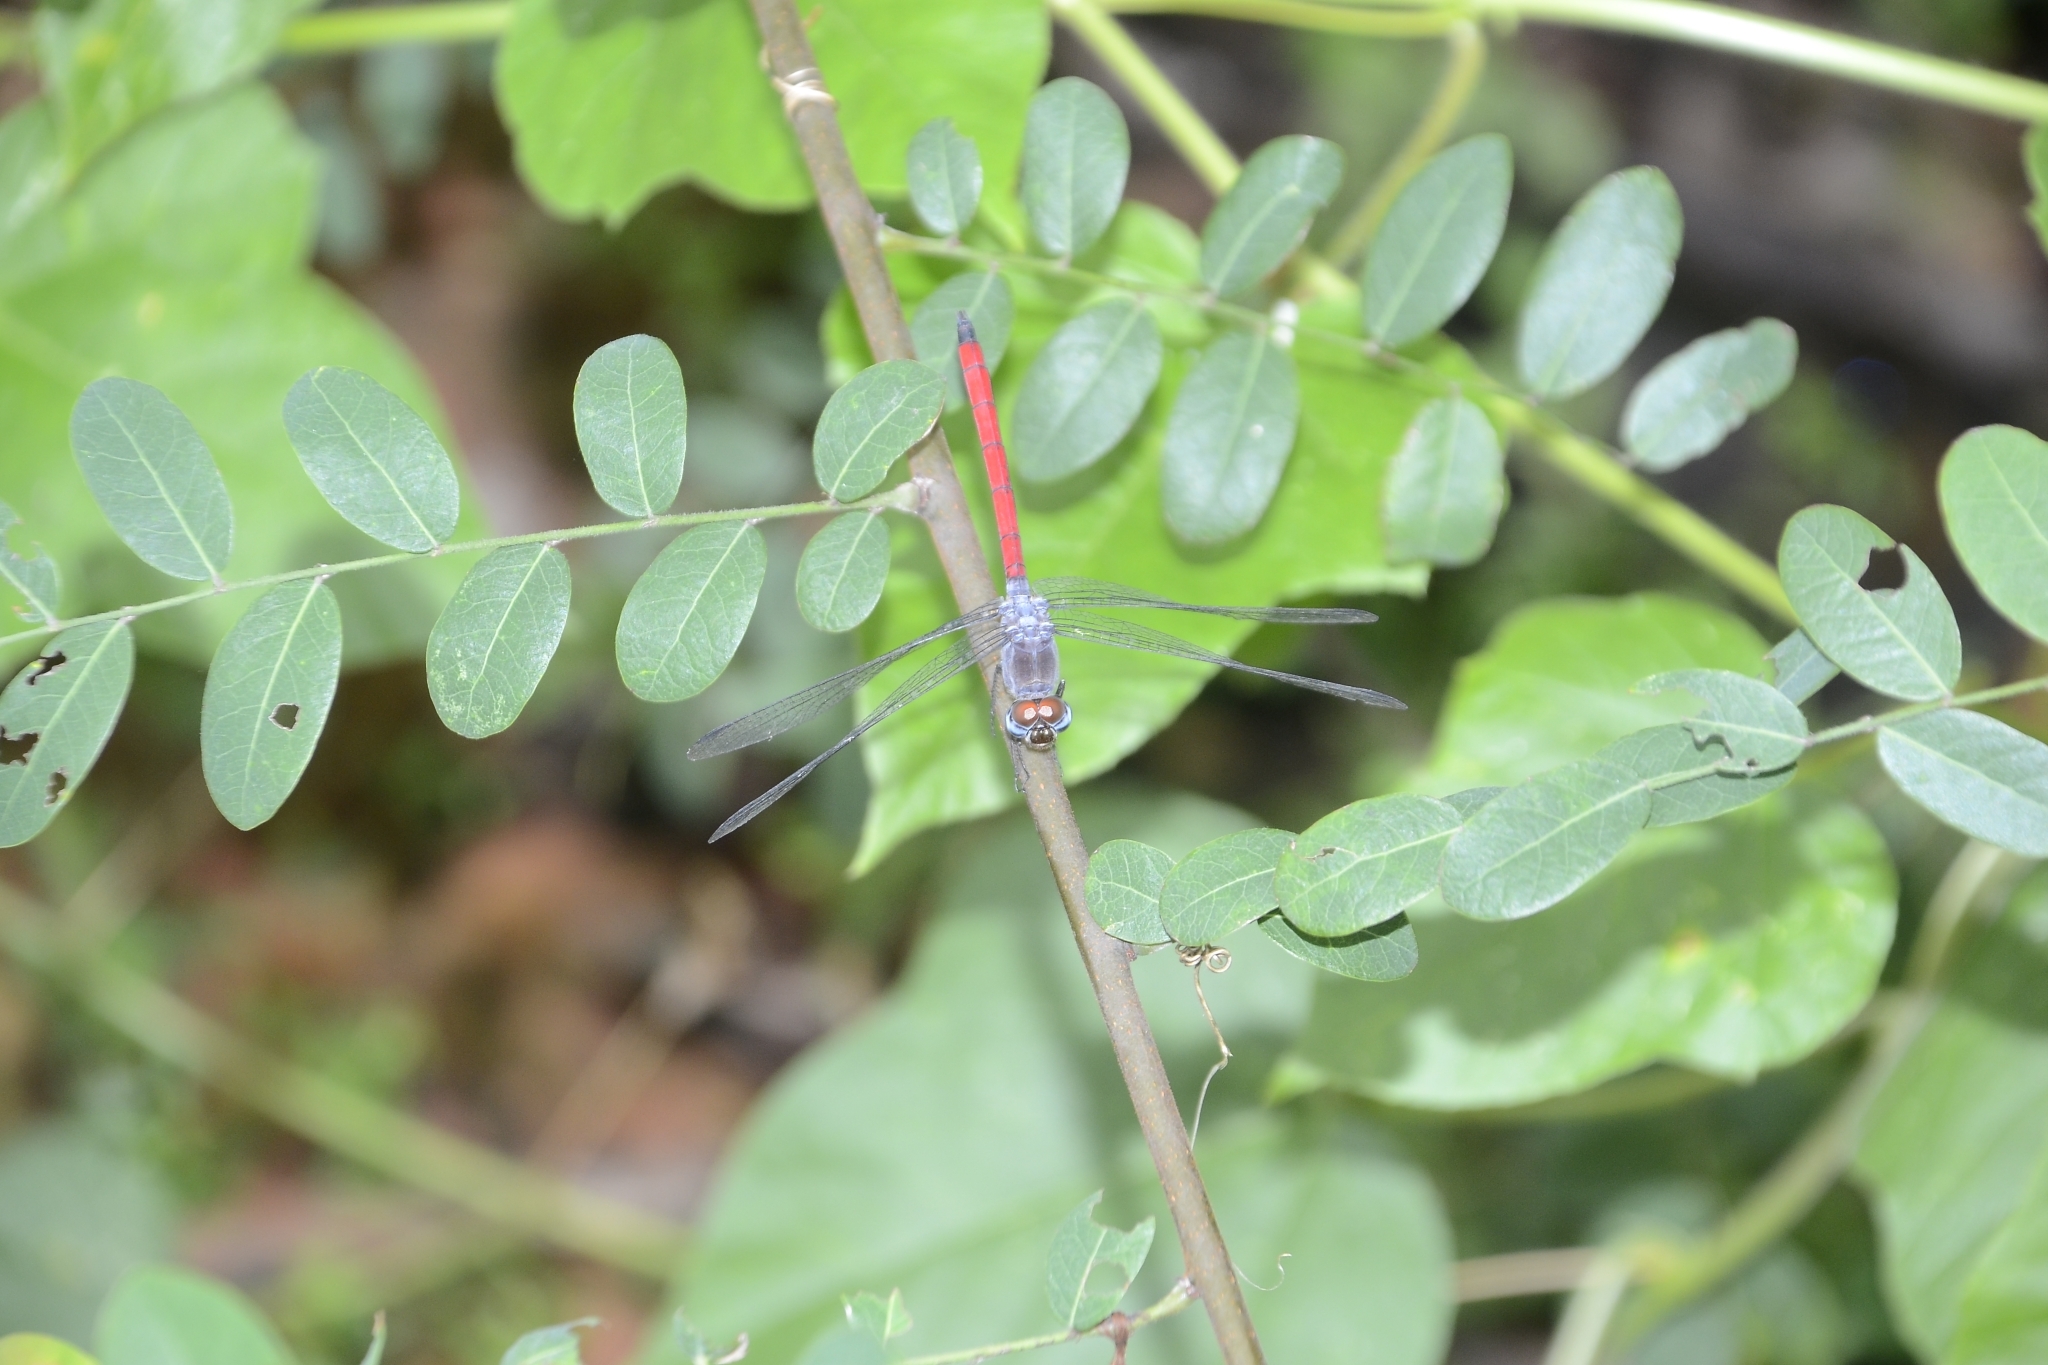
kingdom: Animalia
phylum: Arthropoda
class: Insecta
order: Odonata
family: Libellulidae
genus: Lathrecista
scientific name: Lathrecista asiatica
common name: Scarlet grenadier
